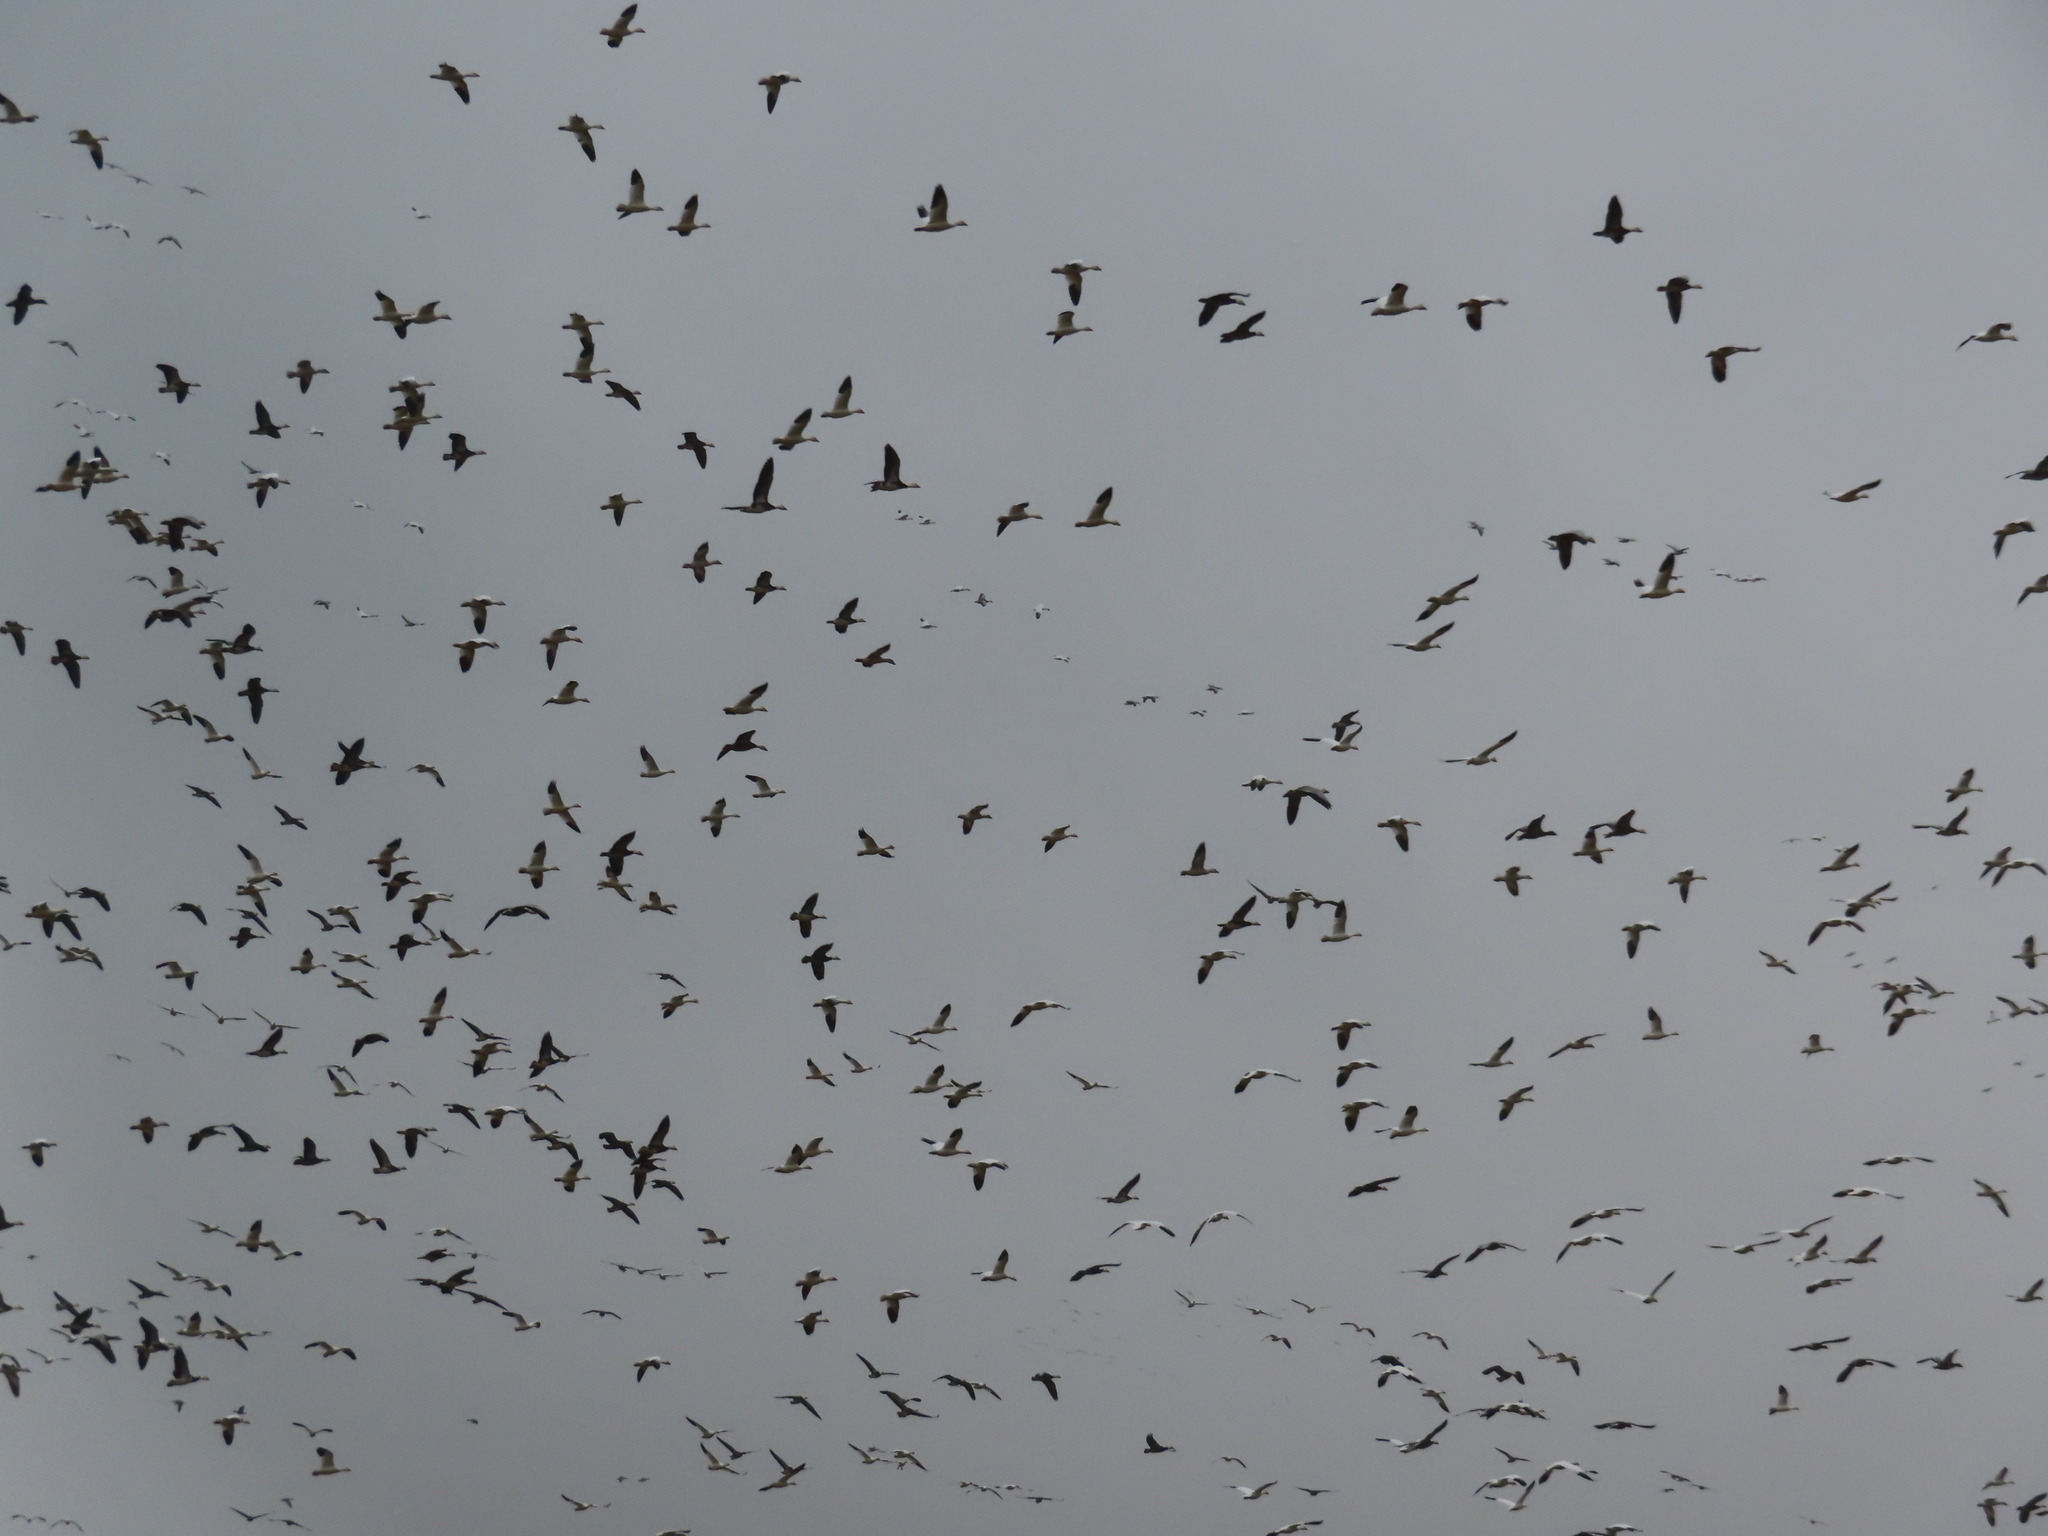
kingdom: Animalia
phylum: Chordata
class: Aves
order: Anseriformes
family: Anatidae
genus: Anser
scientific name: Anser caerulescens
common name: Snow goose
